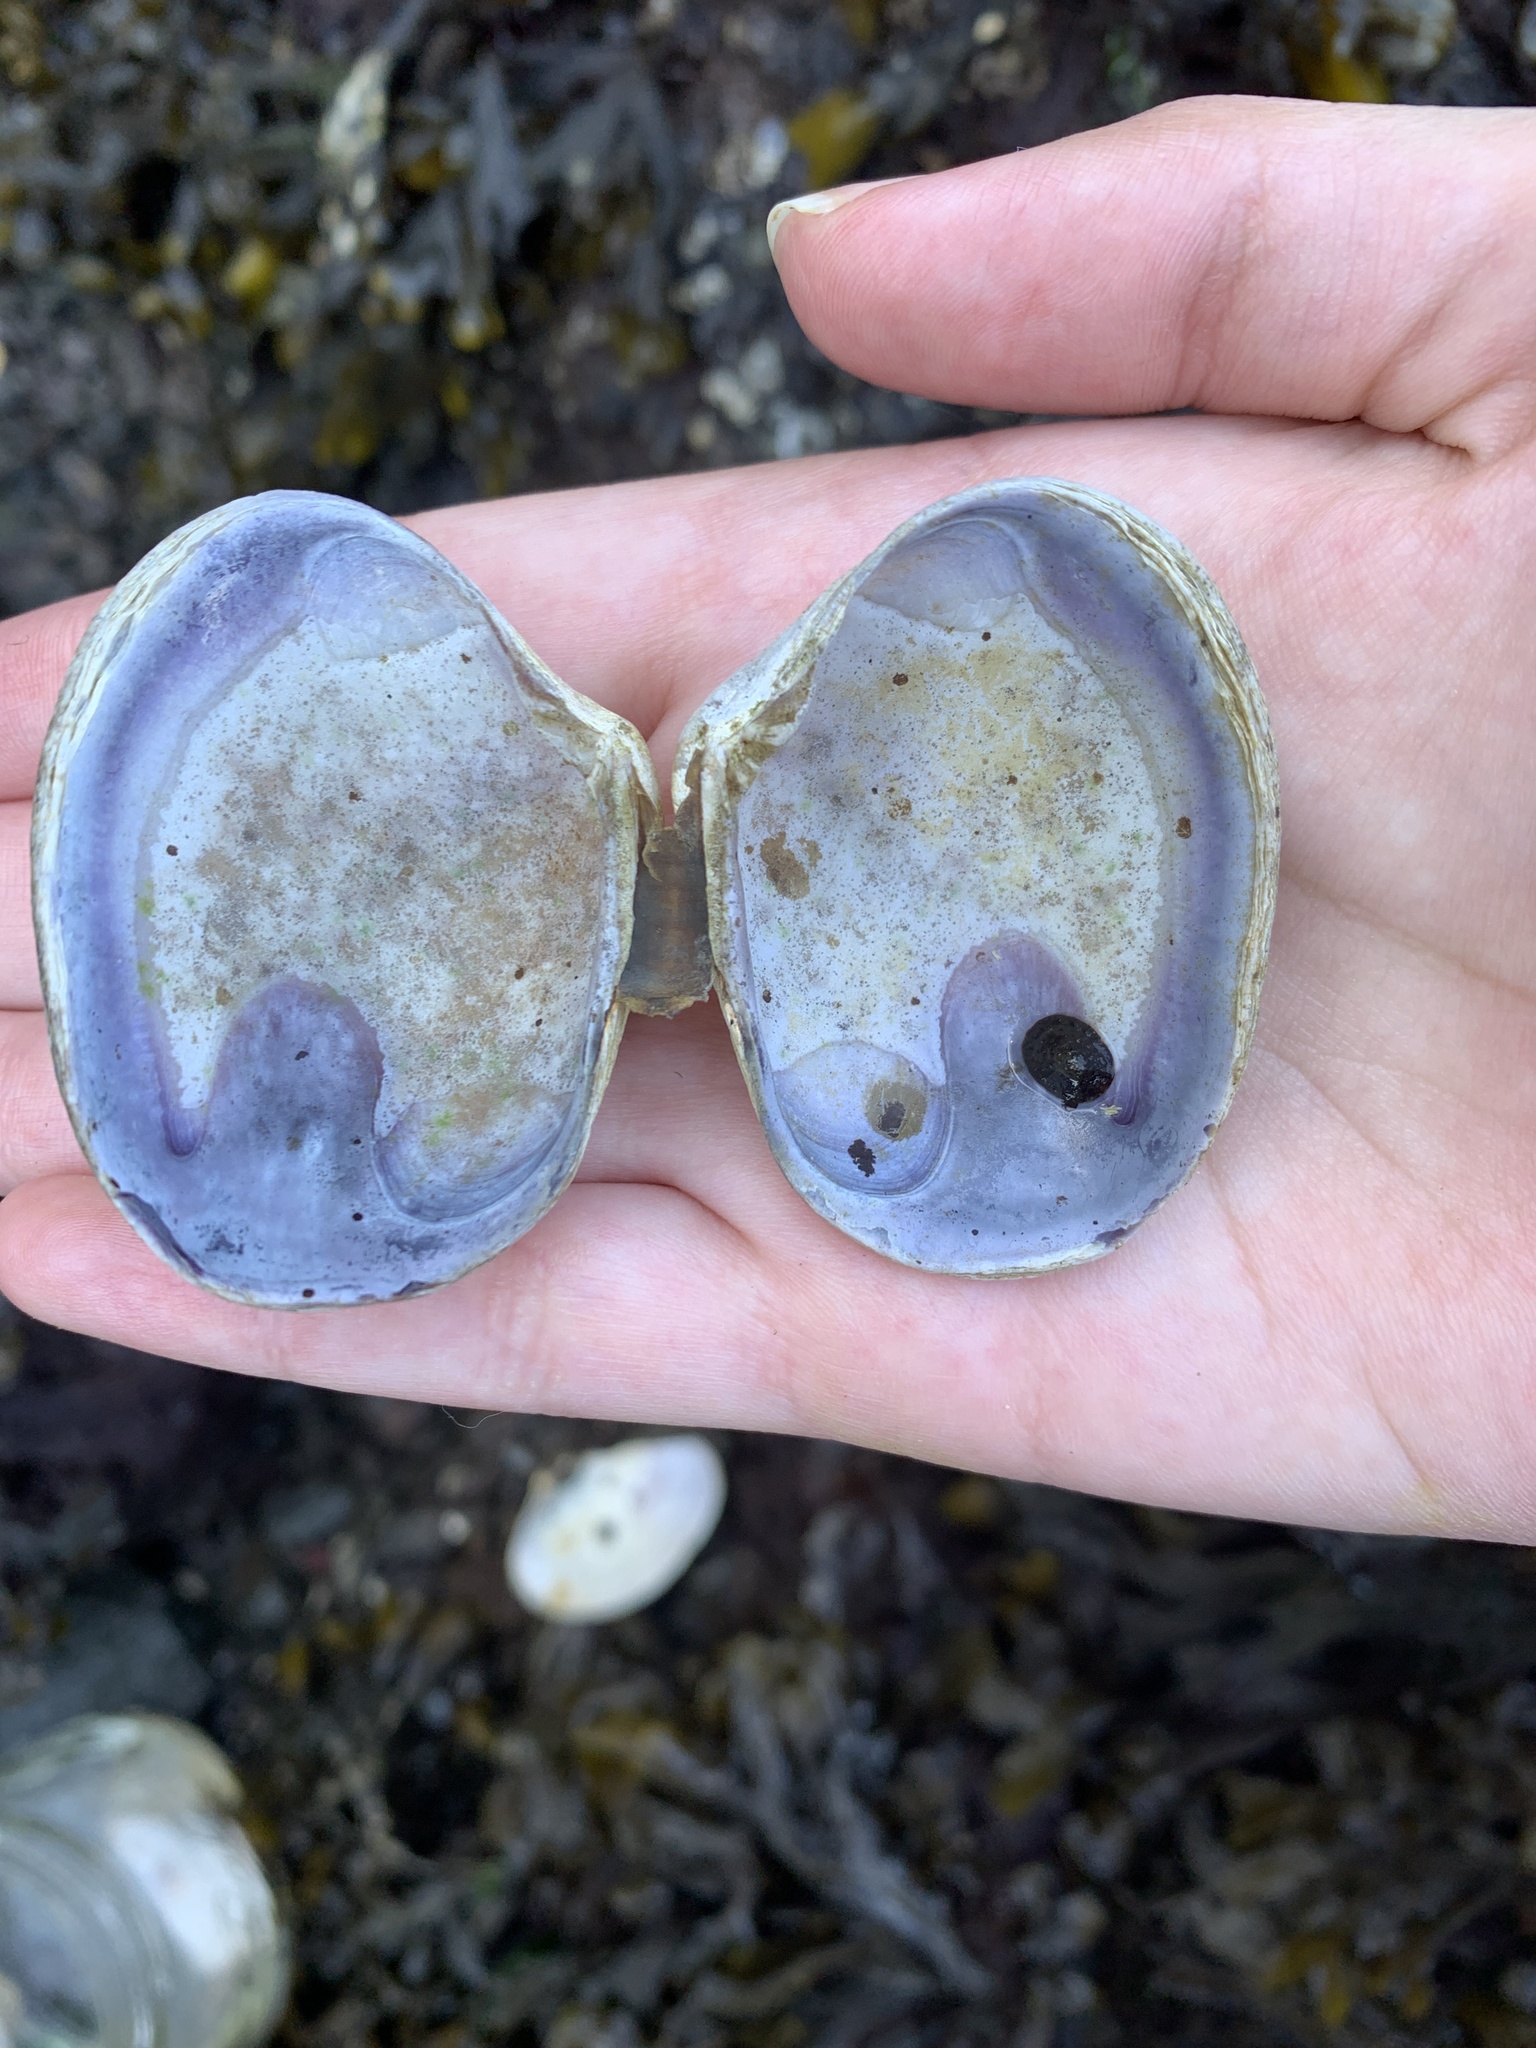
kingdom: Animalia
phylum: Mollusca
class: Bivalvia
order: Venerida
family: Veneridae
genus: Ruditapes
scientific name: Ruditapes philippinarum
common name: Manila clam
